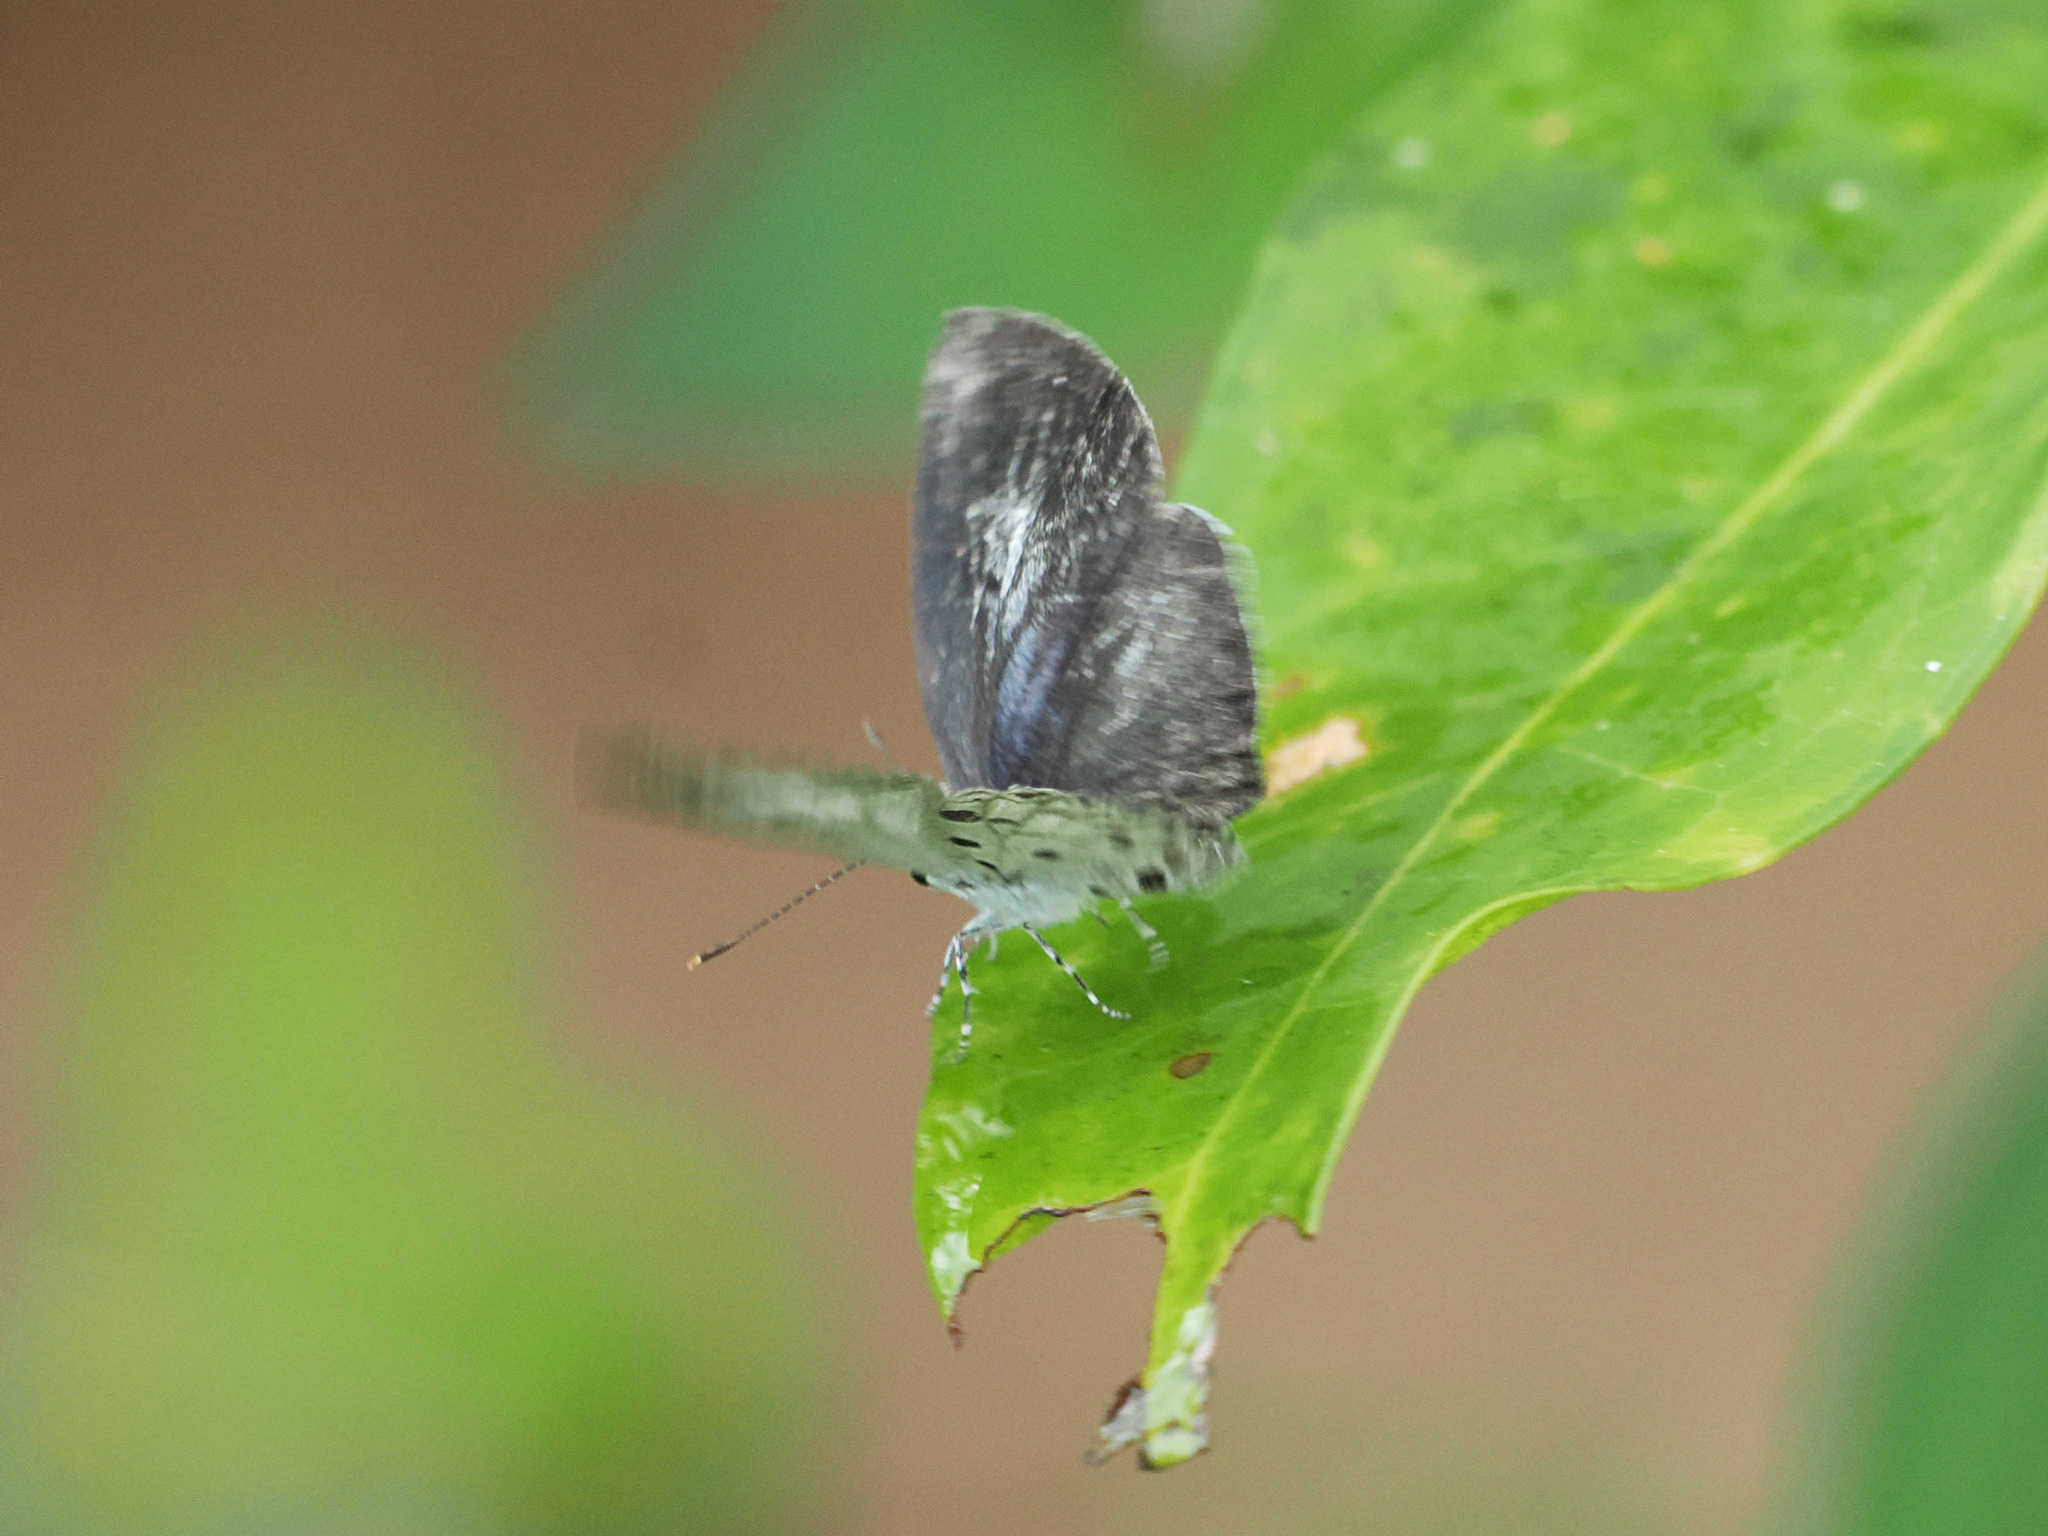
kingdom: Animalia
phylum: Arthropoda
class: Insecta
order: Lepidoptera
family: Lycaenidae
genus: Acytolepis
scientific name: Acytolepis puspa
